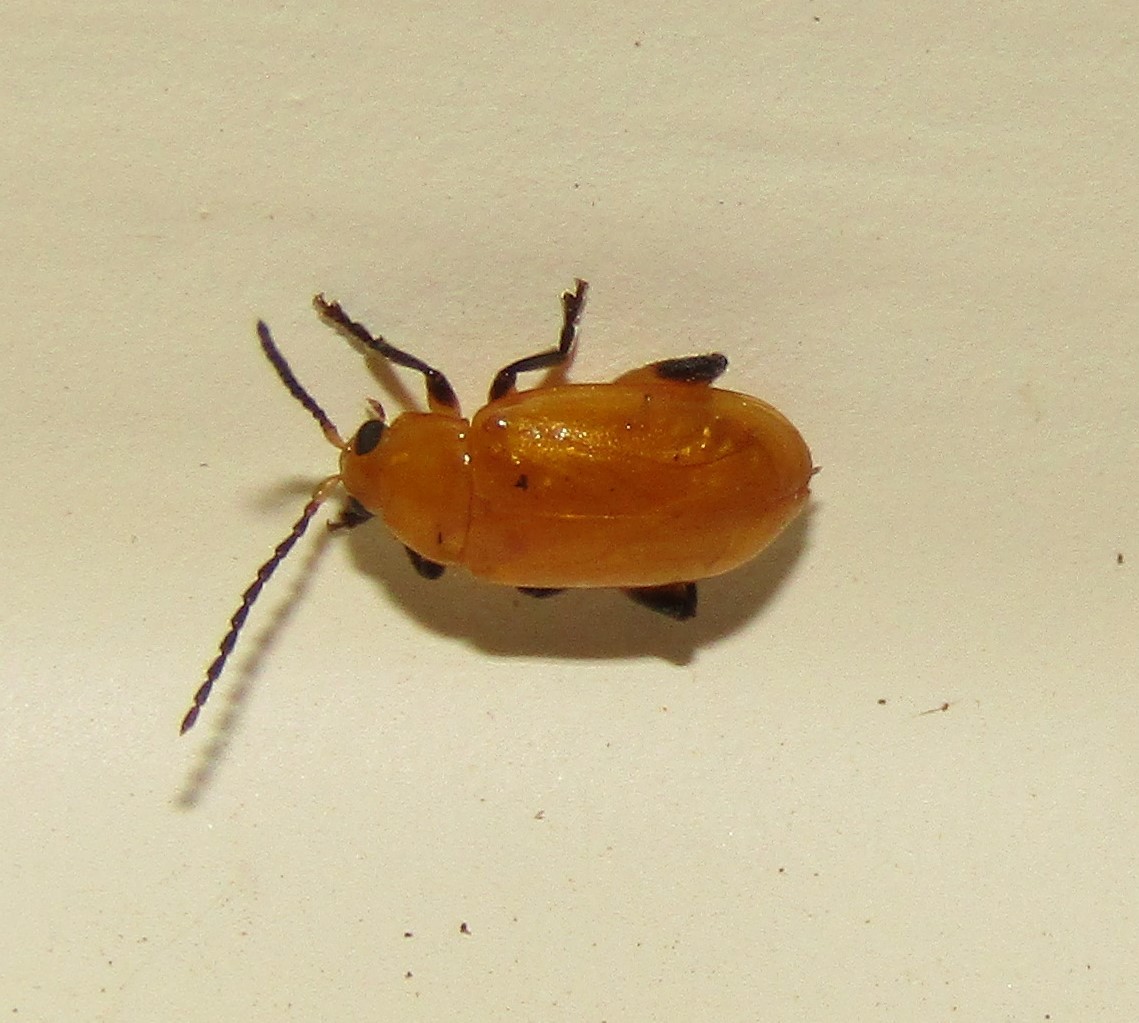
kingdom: Animalia
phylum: Arthropoda
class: Insecta
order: Coleoptera
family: Chrysomelidae
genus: Parchicola
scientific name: Parchicola tibialis
